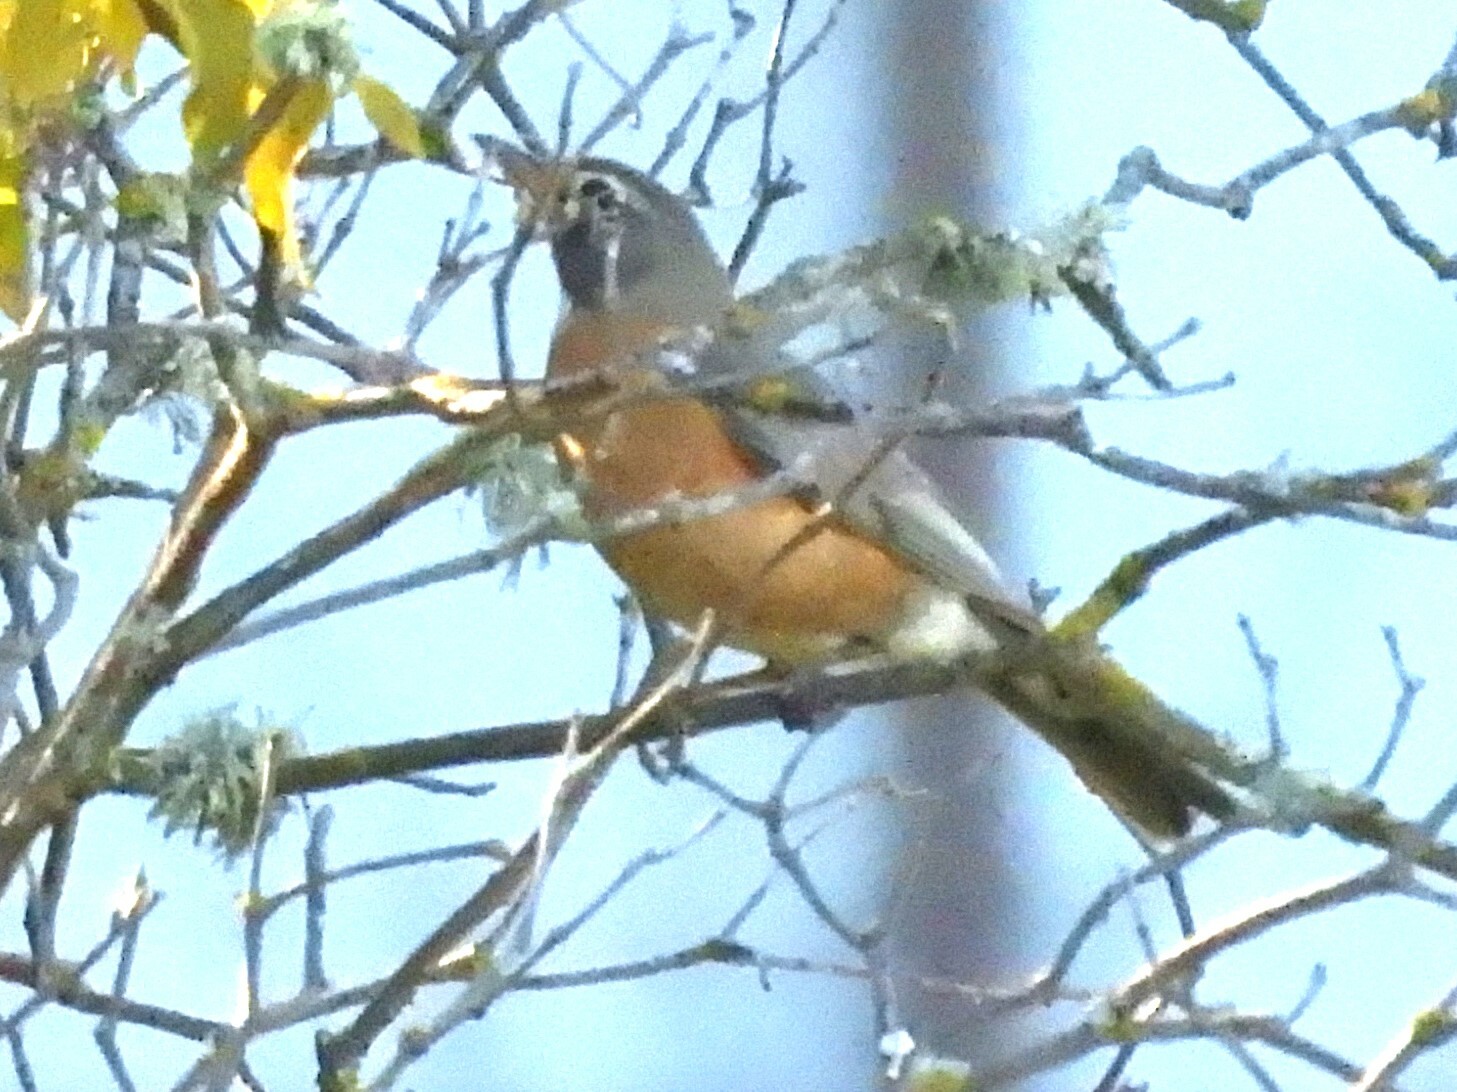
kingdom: Animalia
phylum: Chordata
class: Aves
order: Passeriformes
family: Turdidae
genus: Turdus
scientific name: Turdus migratorius
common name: American robin
